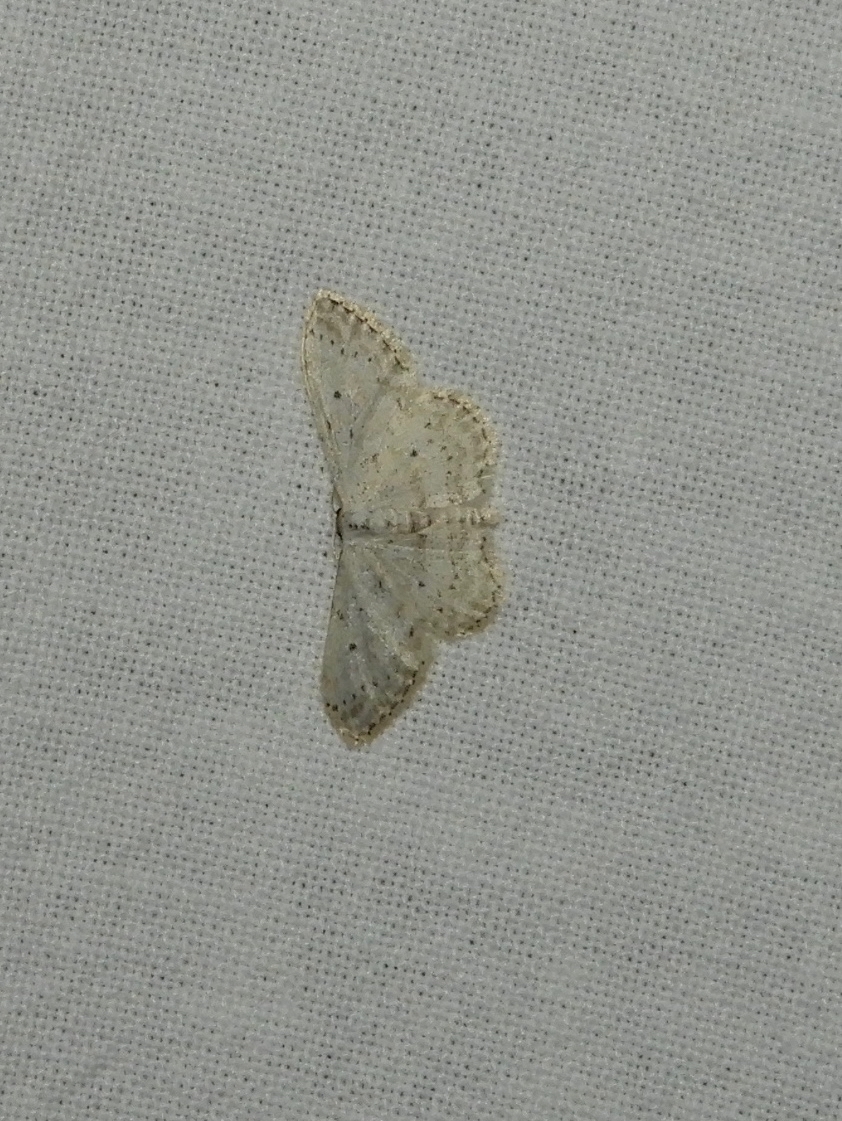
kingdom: Animalia
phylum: Arthropoda
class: Insecta
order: Lepidoptera
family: Geometridae
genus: Idaea
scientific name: Idaea seriata
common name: Small dusty wave
